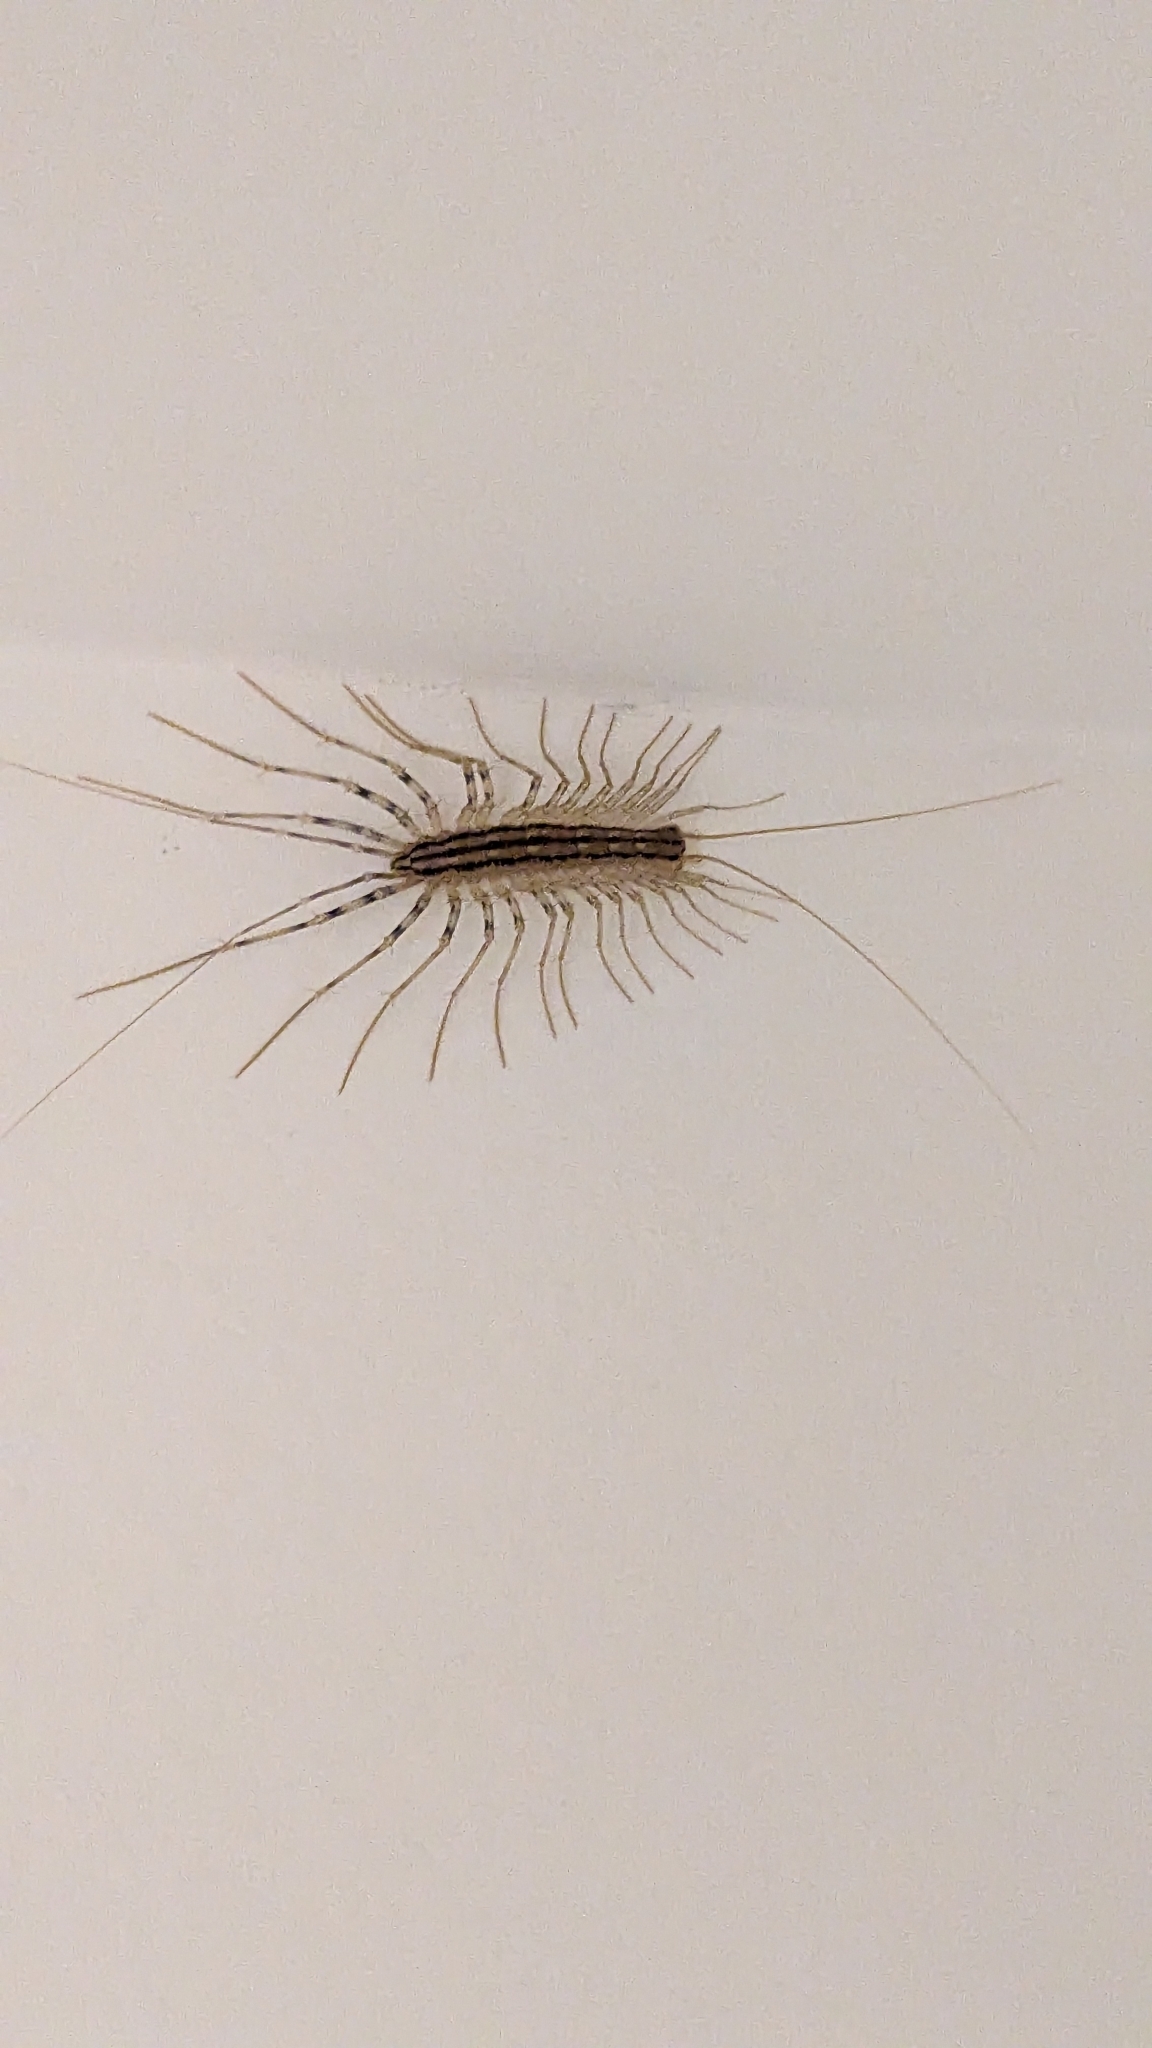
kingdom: Animalia
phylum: Arthropoda
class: Chilopoda
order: Scutigeromorpha
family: Scutigeridae
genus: Scutigera
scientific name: Scutigera coleoptrata
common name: House centipede
